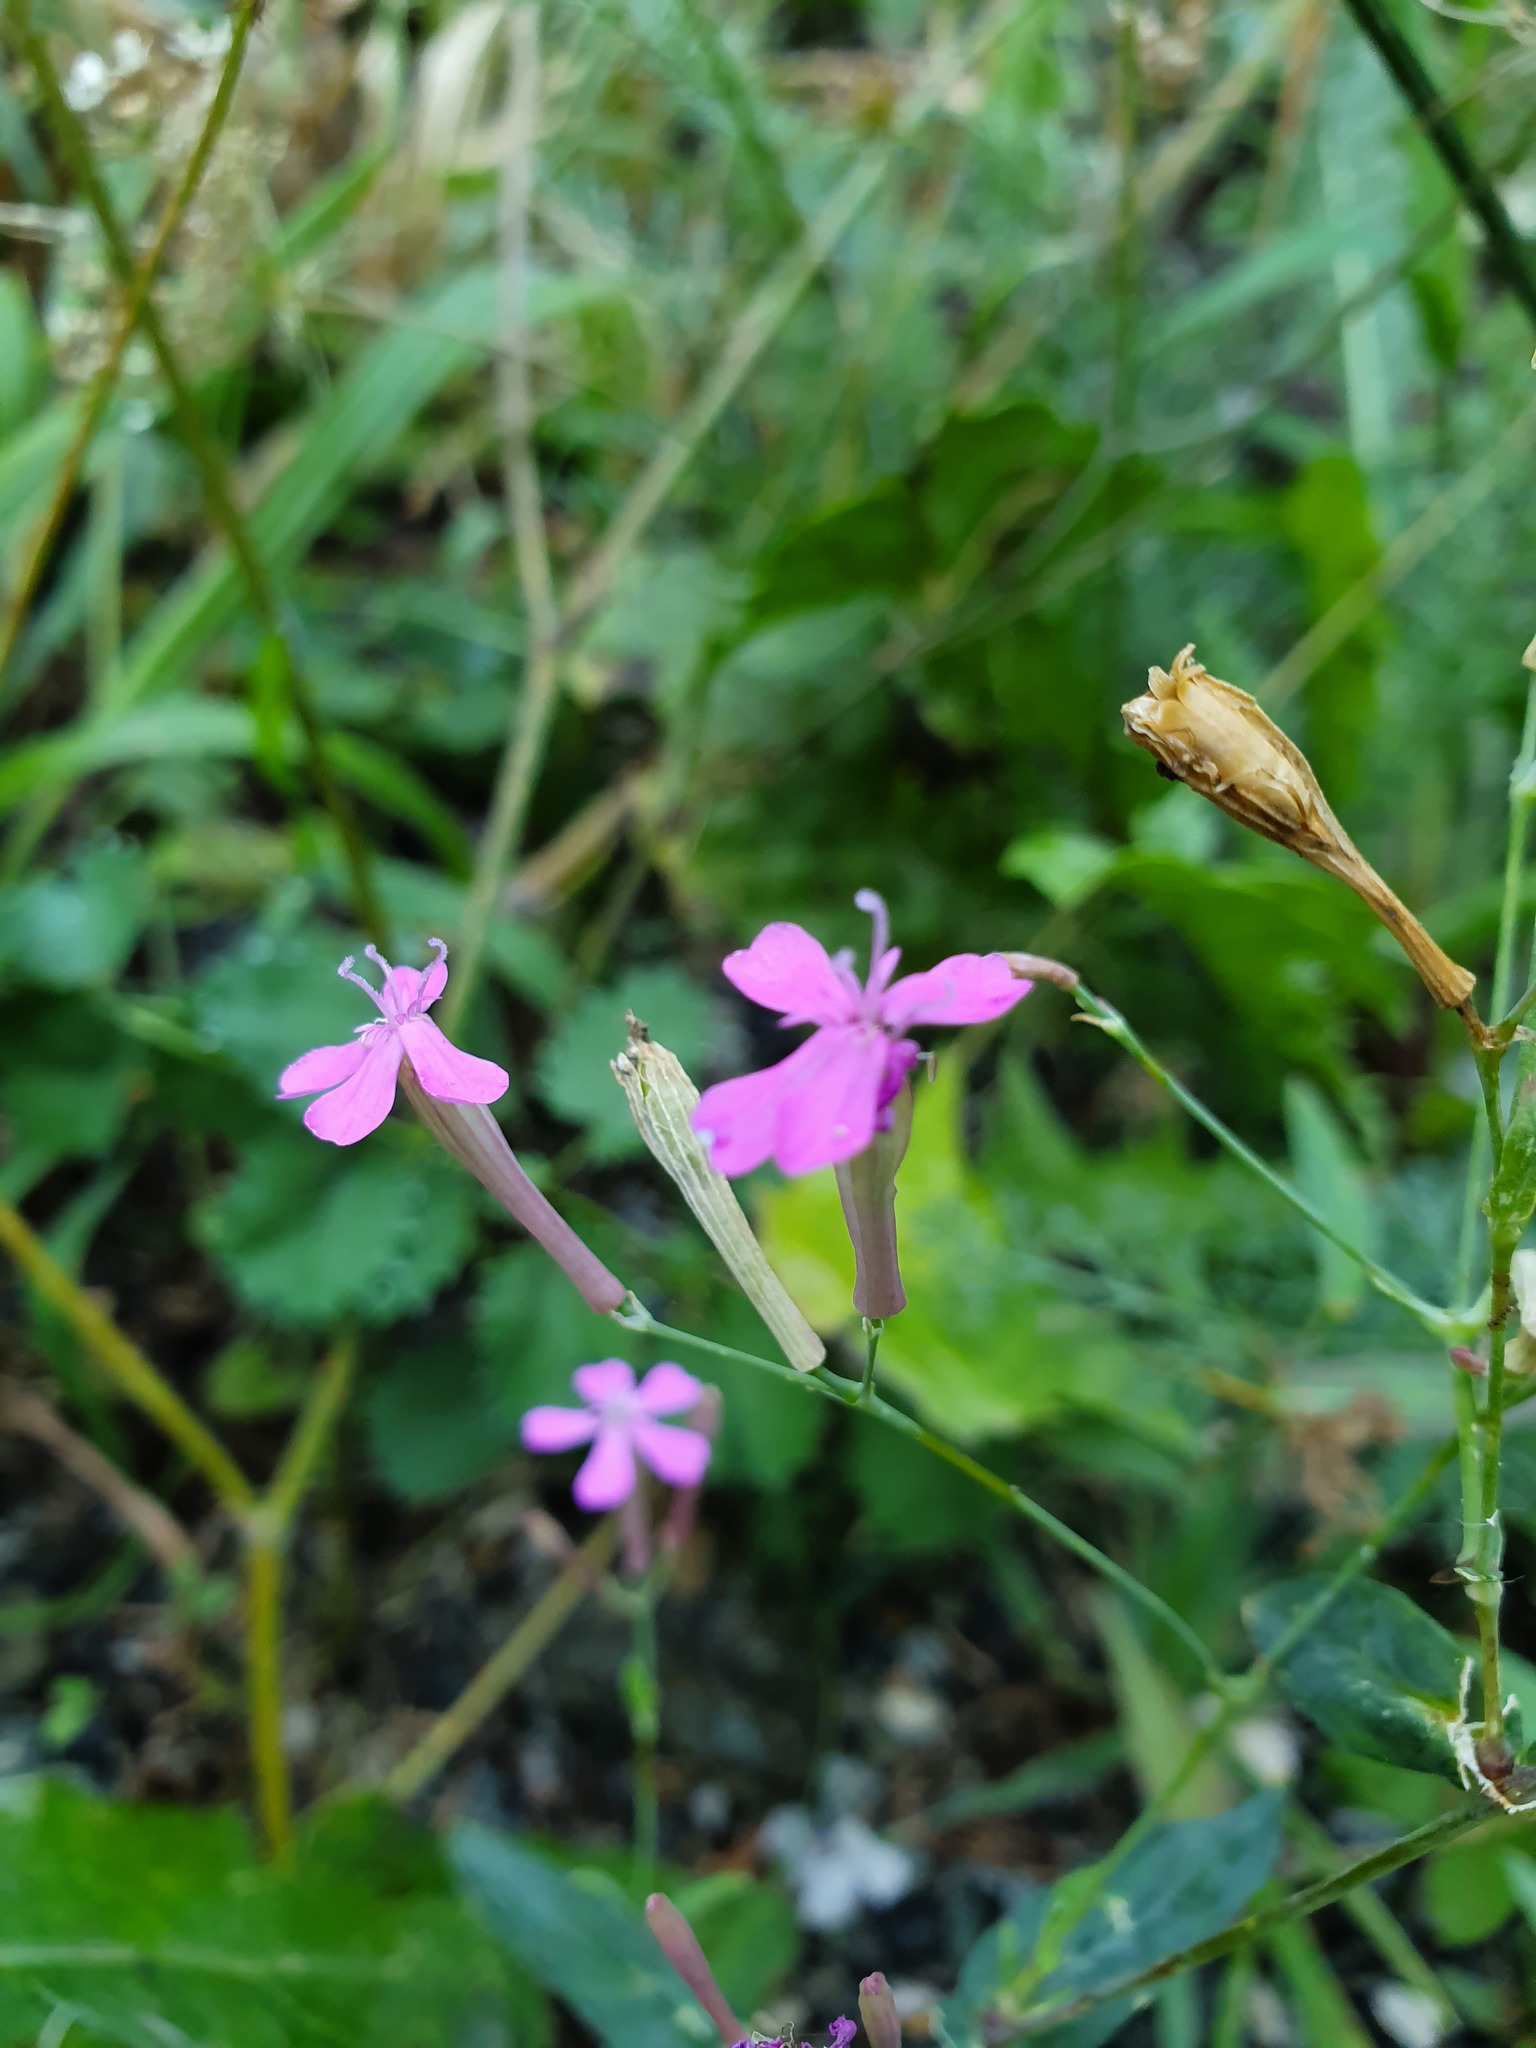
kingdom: Plantae
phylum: Tracheophyta
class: Magnoliopsida
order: Caryophyllales
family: Caryophyllaceae
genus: Atocion
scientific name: Atocion armeria
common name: Sweet william catchfly
